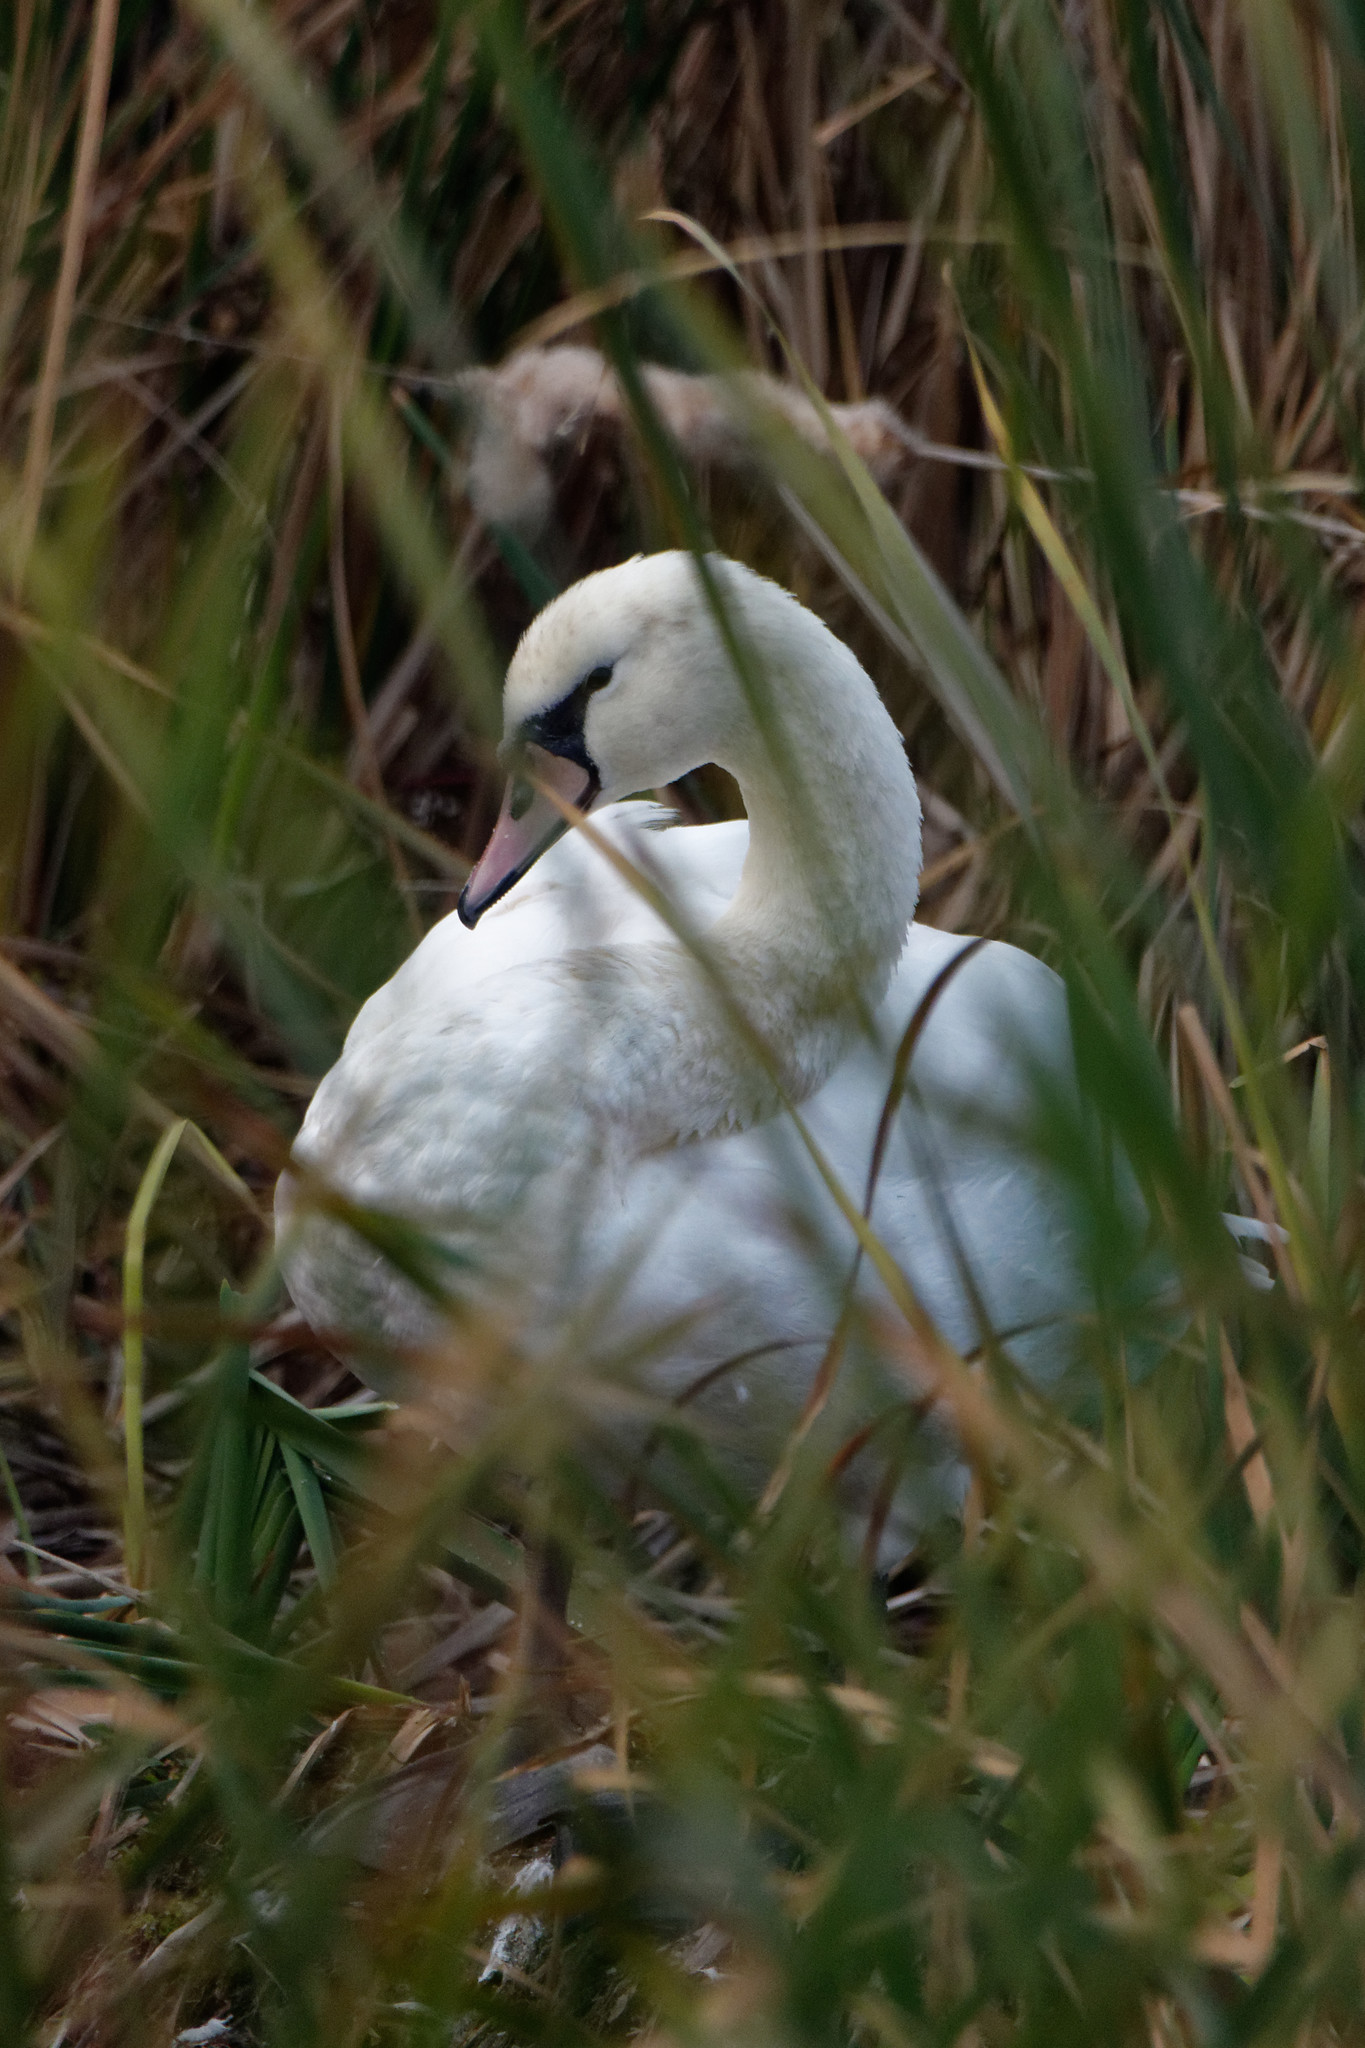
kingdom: Animalia
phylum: Chordata
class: Aves
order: Anseriformes
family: Anatidae
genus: Cygnus
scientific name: Cygnus olor
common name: Mute swan
